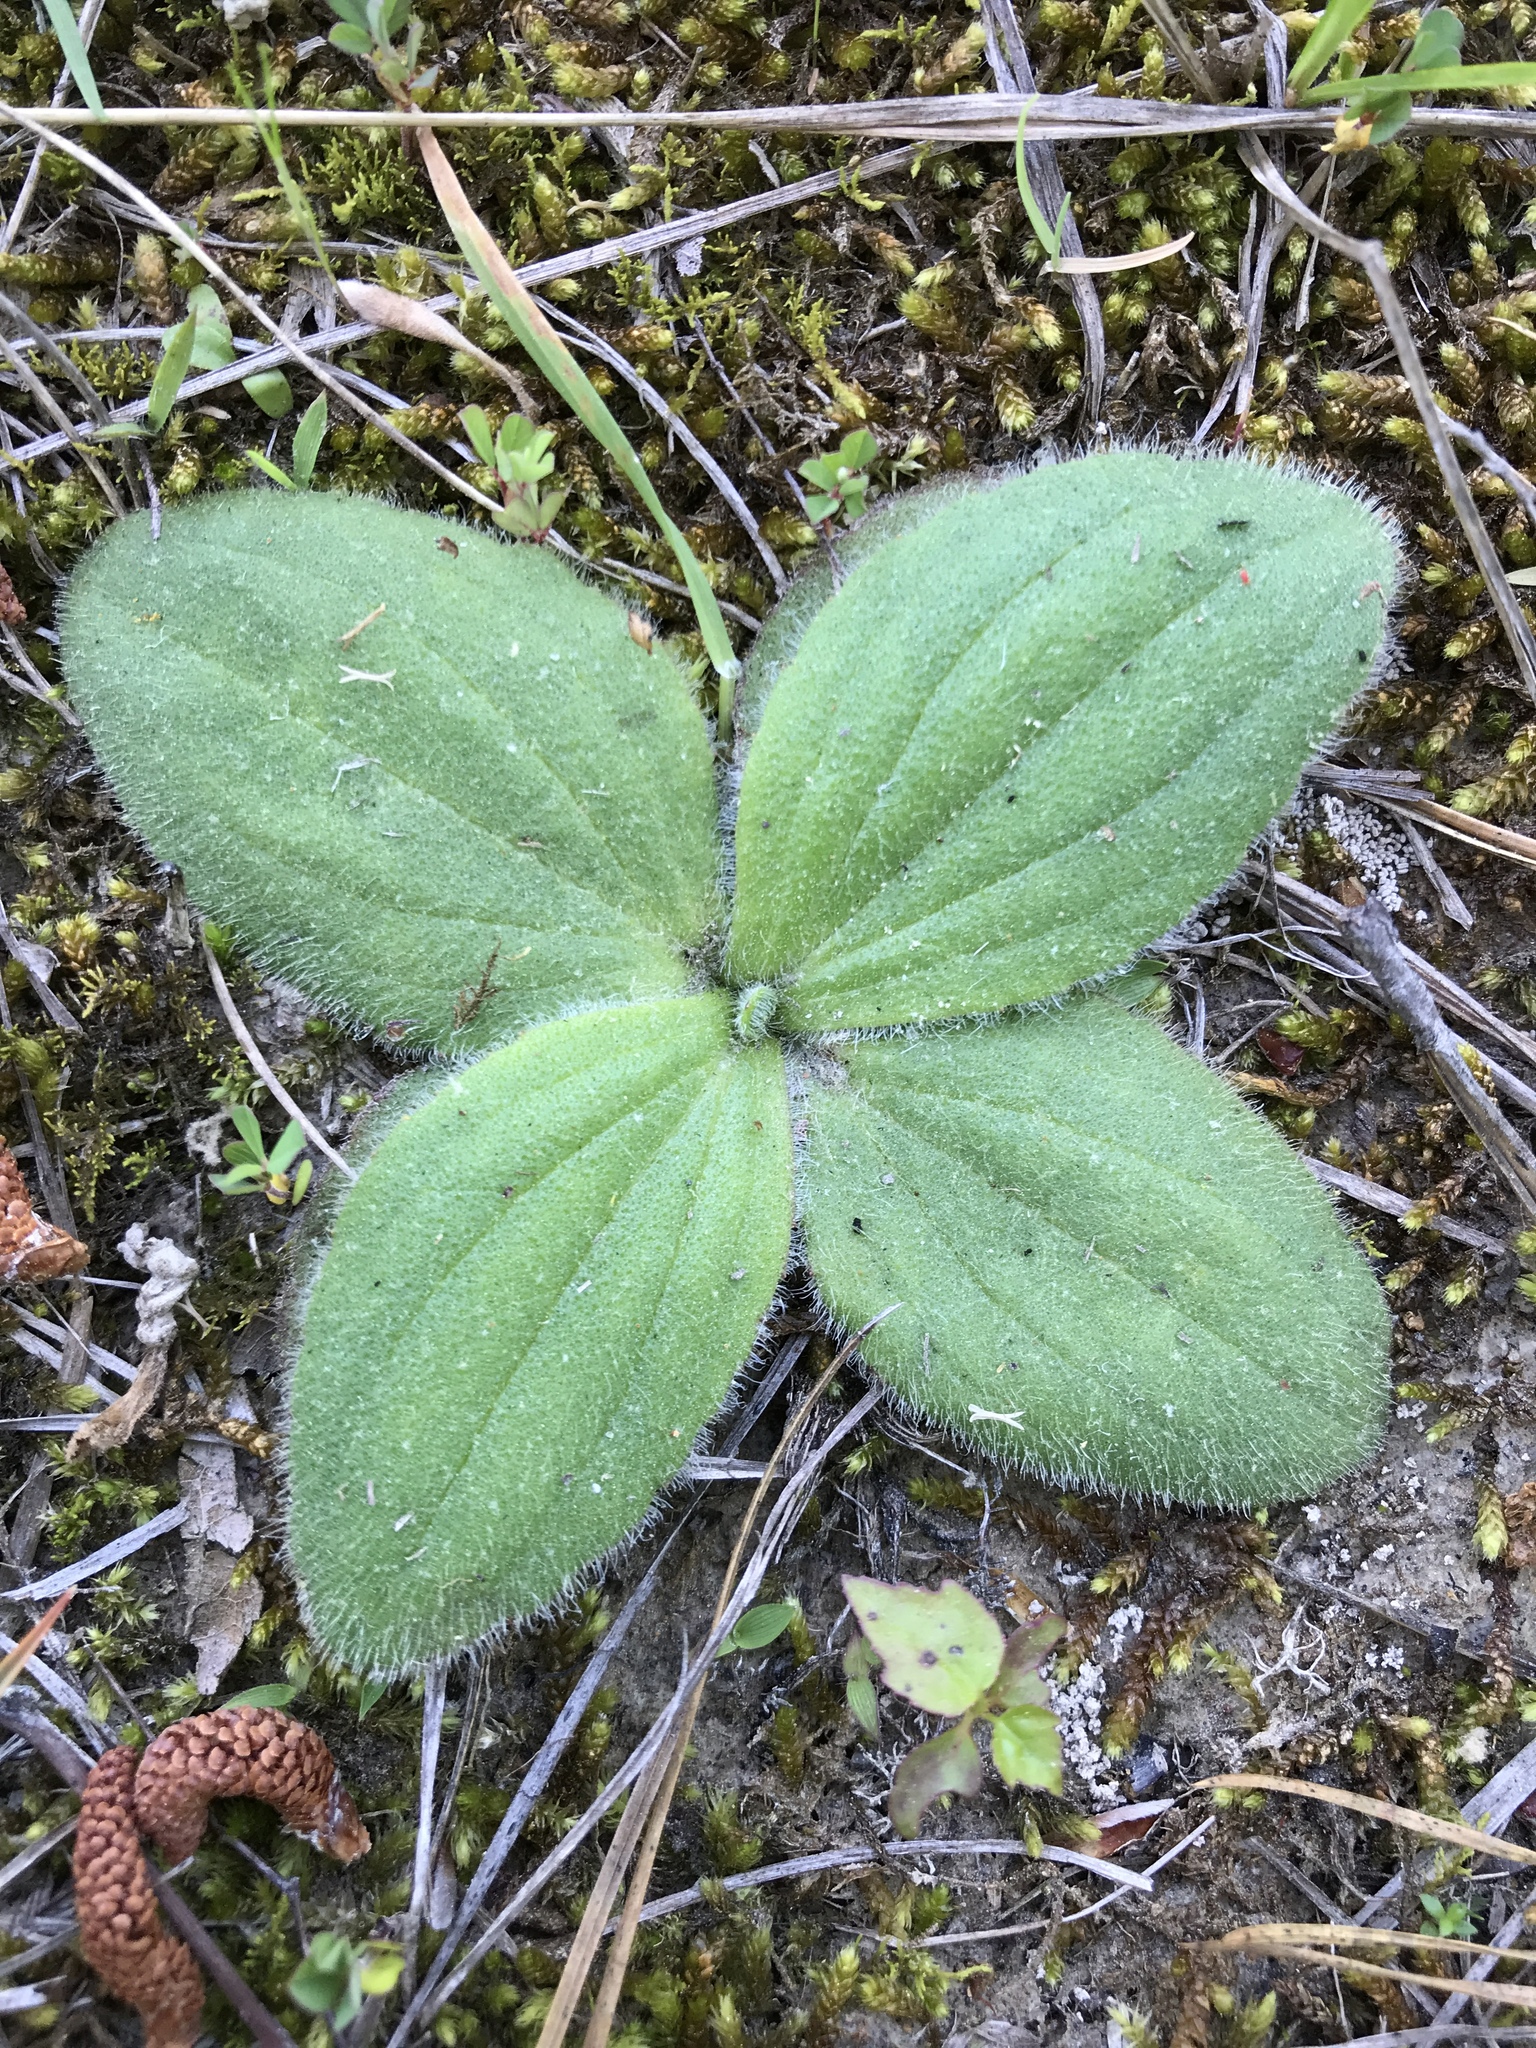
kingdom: Plantae
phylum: Tracheophyta
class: Magnoliopsida
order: Asterales
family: Asteraceae
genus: Arnica
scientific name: Arnica acaulis
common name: Common leopardbane
